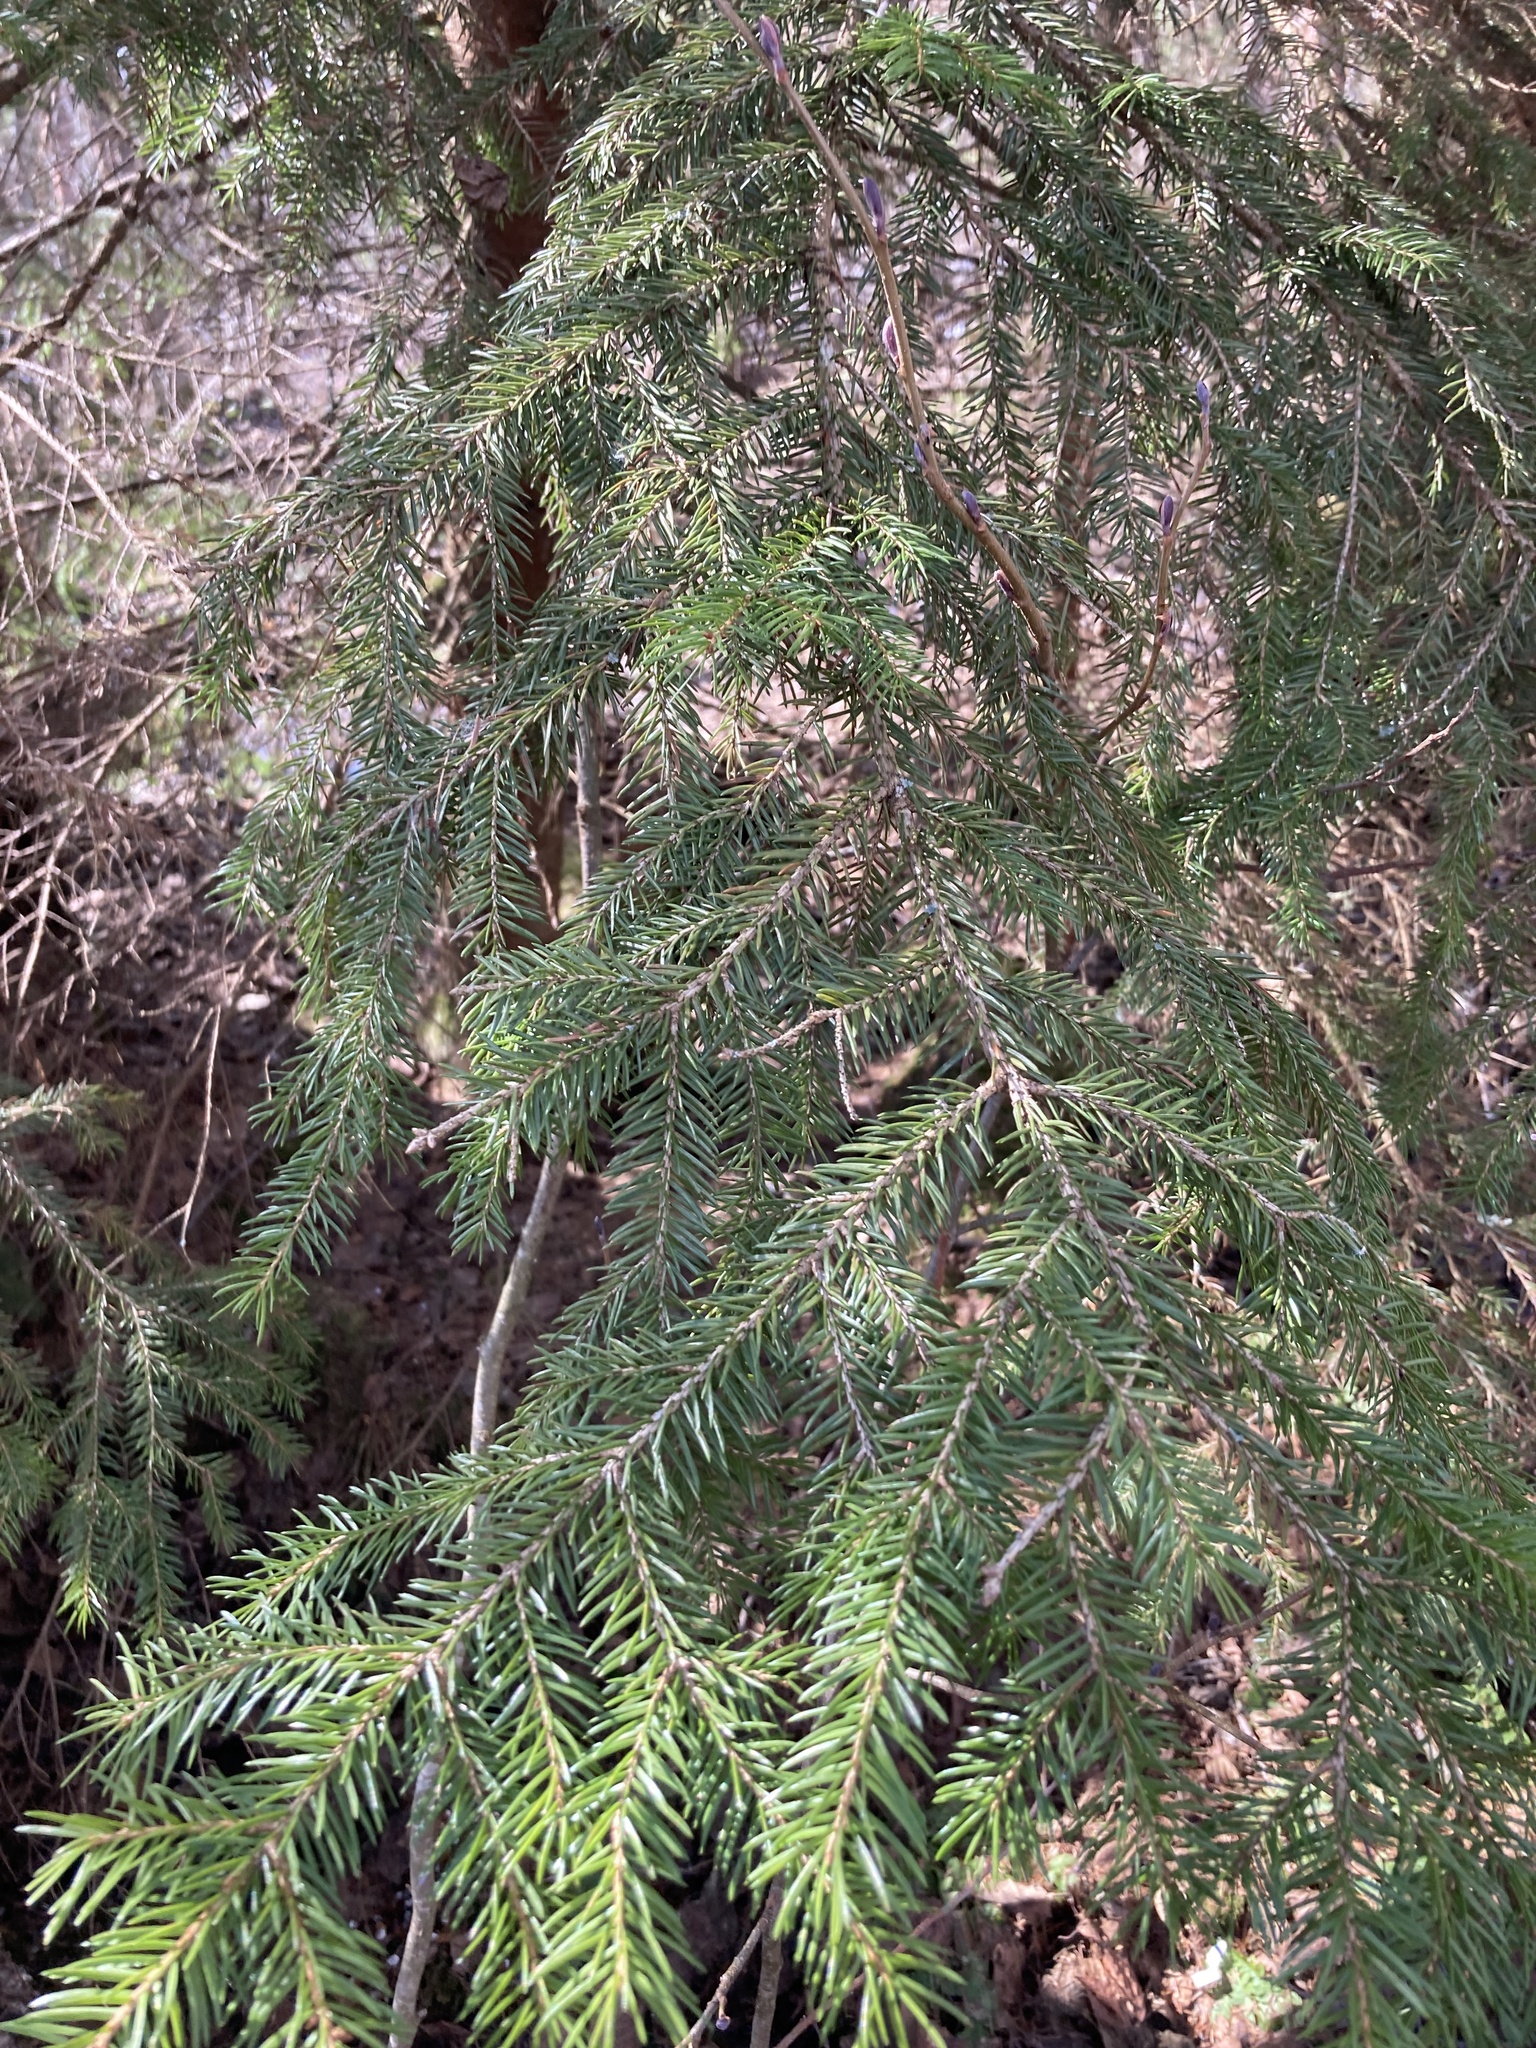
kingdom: Plantae
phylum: Tracheophyta
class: Pinopsida
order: Pinales
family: Pinaceae
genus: Picea
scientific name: Picea abies
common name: Norway spruce
